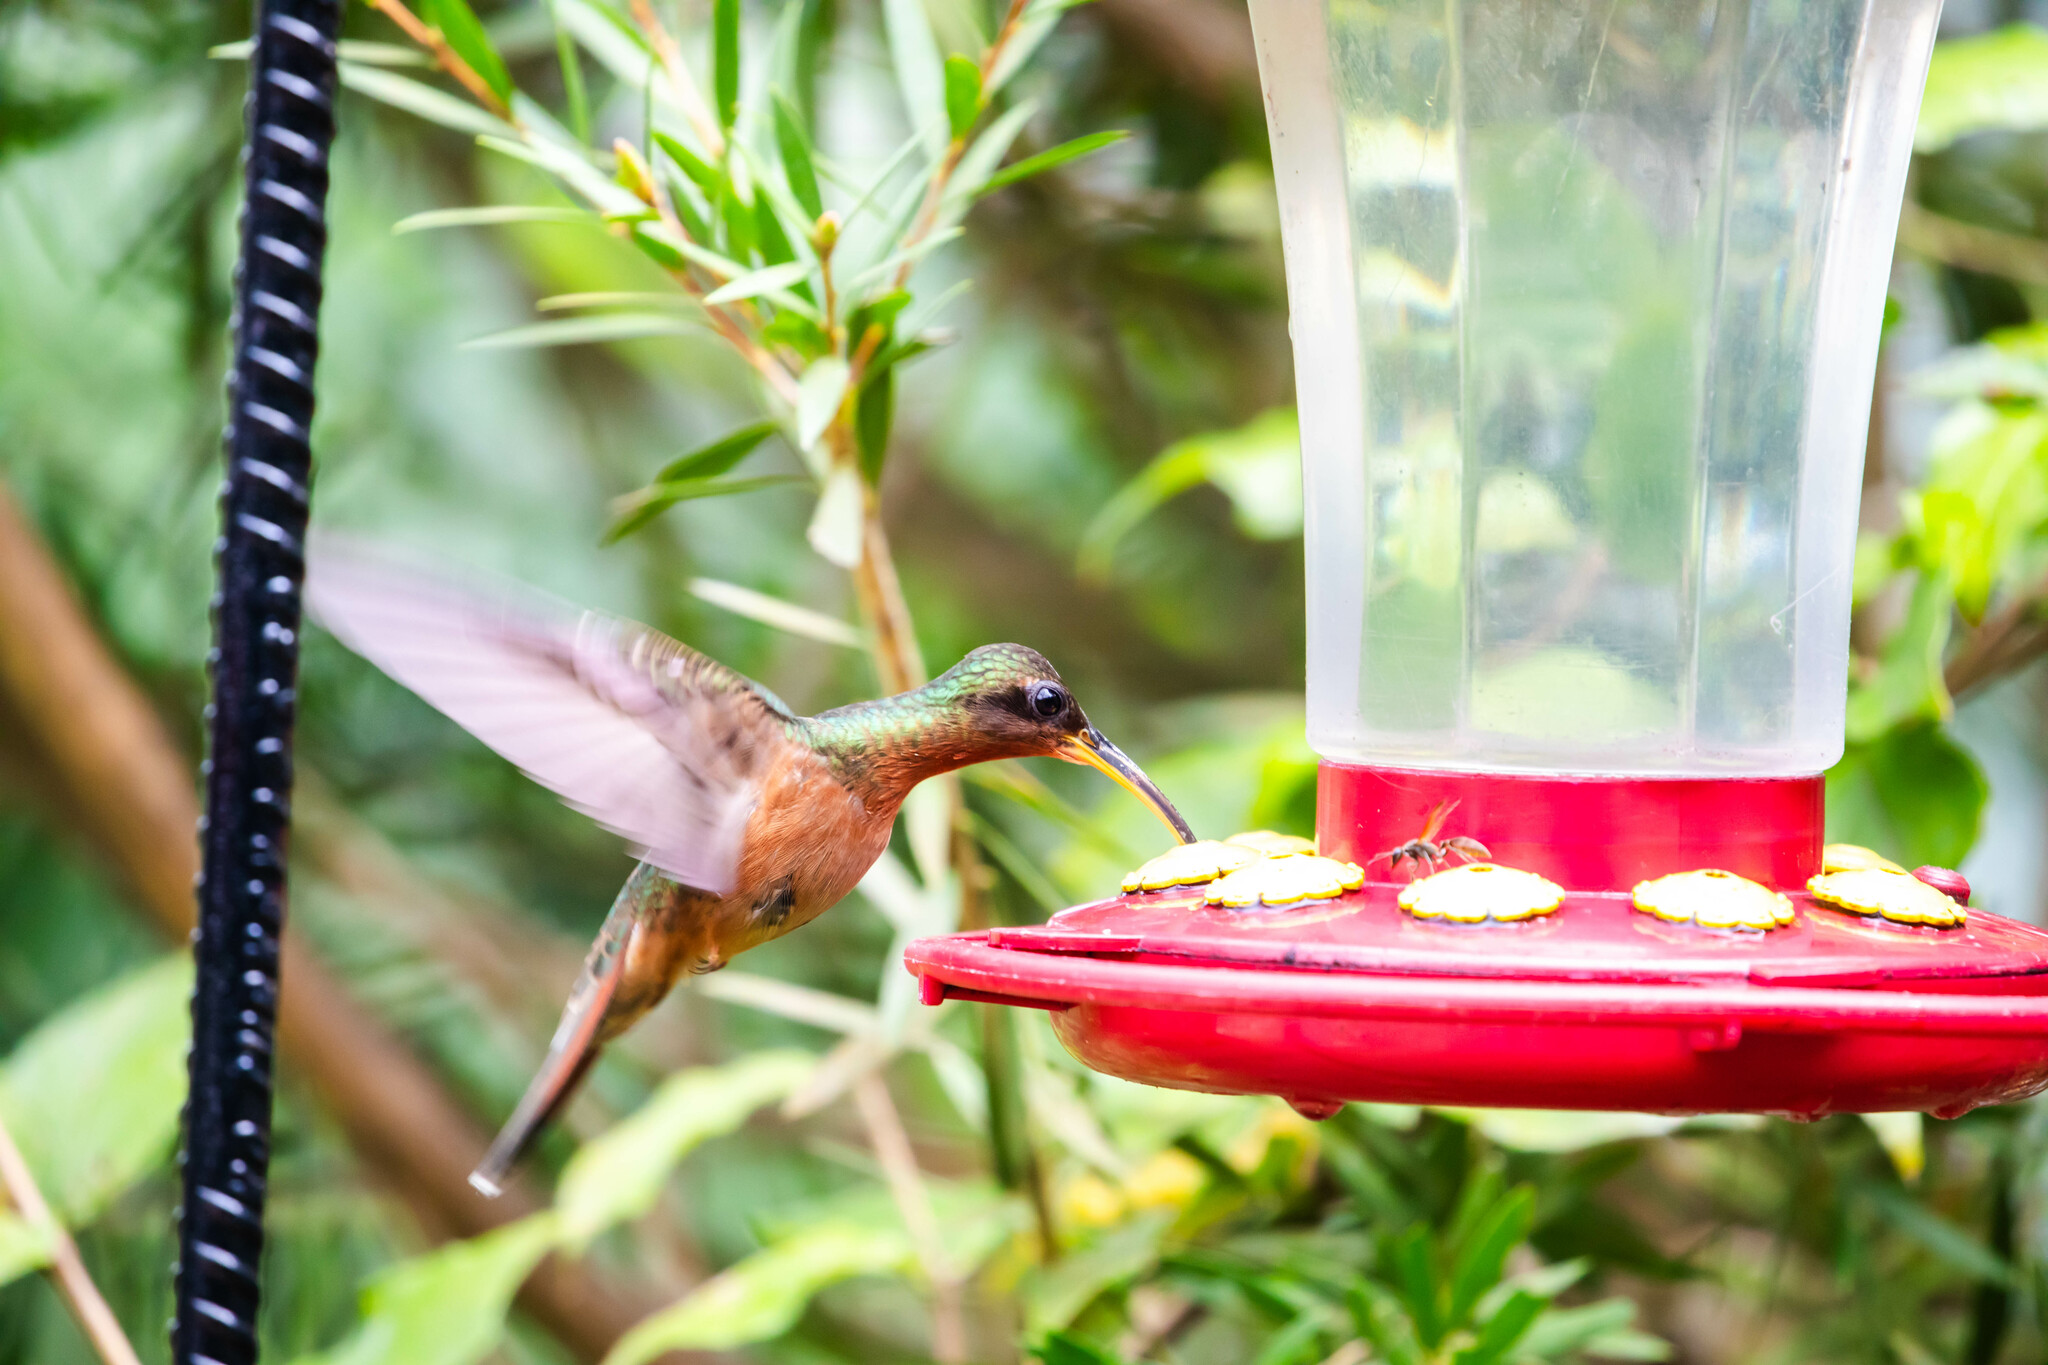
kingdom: Animalia
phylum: Chordata
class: Aves
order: Apodiformes
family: Trochilidae
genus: Glaucis
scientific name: Glaucis hirsutus
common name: Rufous-breasted hermit
